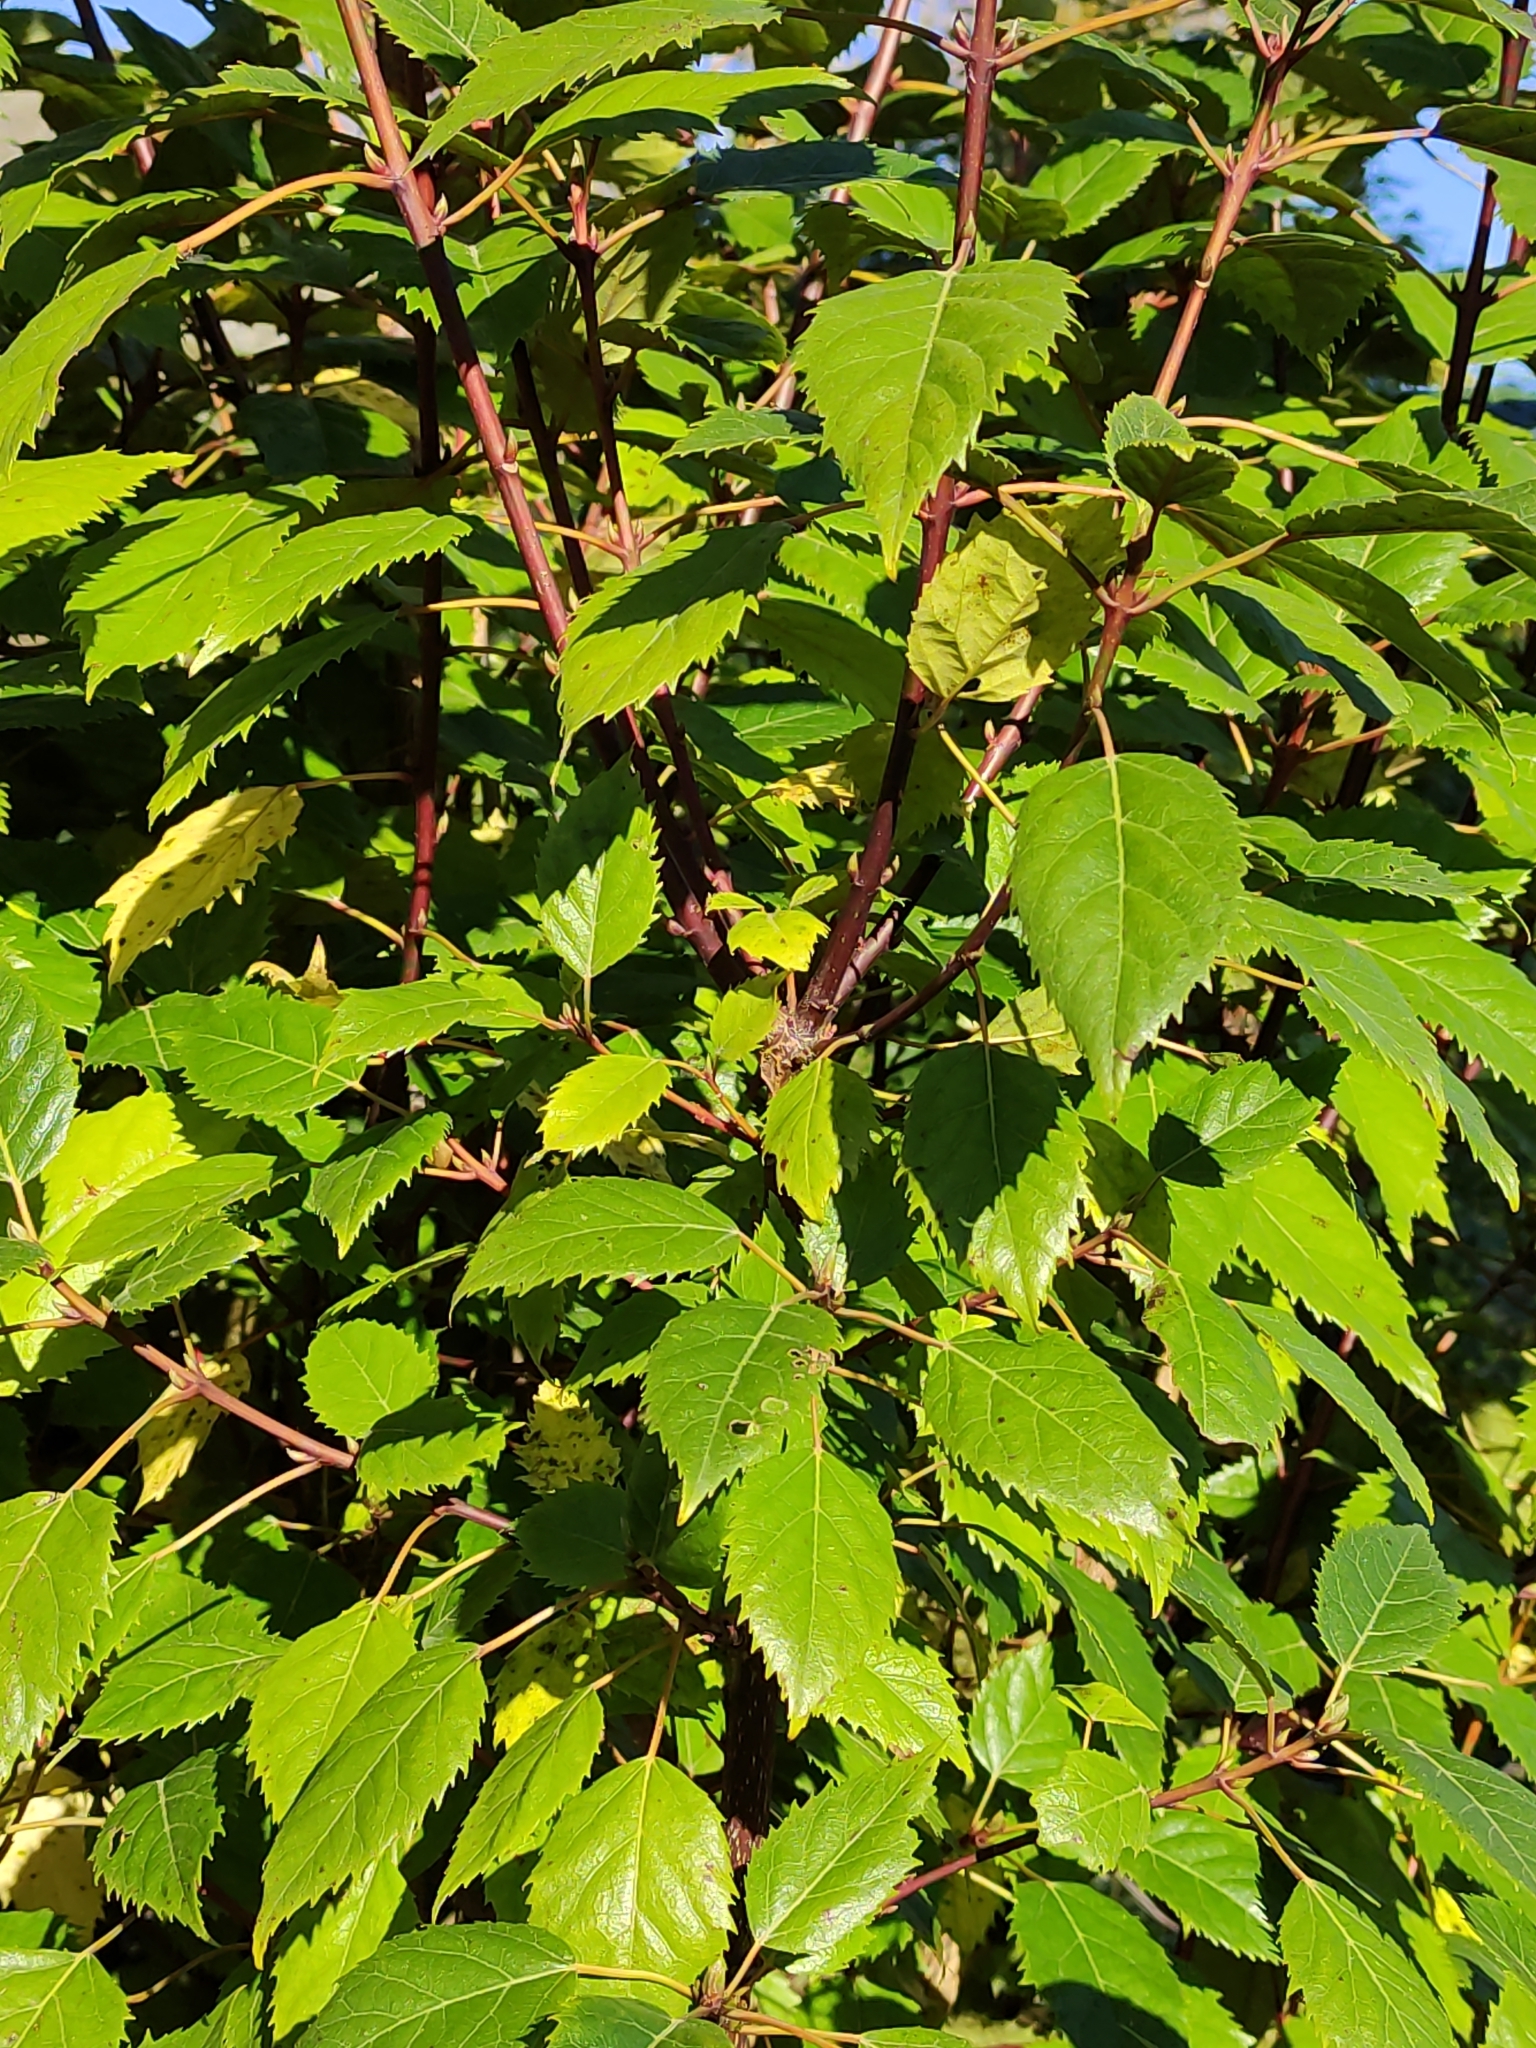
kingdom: Plantae
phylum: Tracheophyta
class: Magnoliopsida
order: Oxalidales
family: Elaeocarpaceae
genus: Aristotelia
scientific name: Aristotelia serrata
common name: New zealand wineberry
